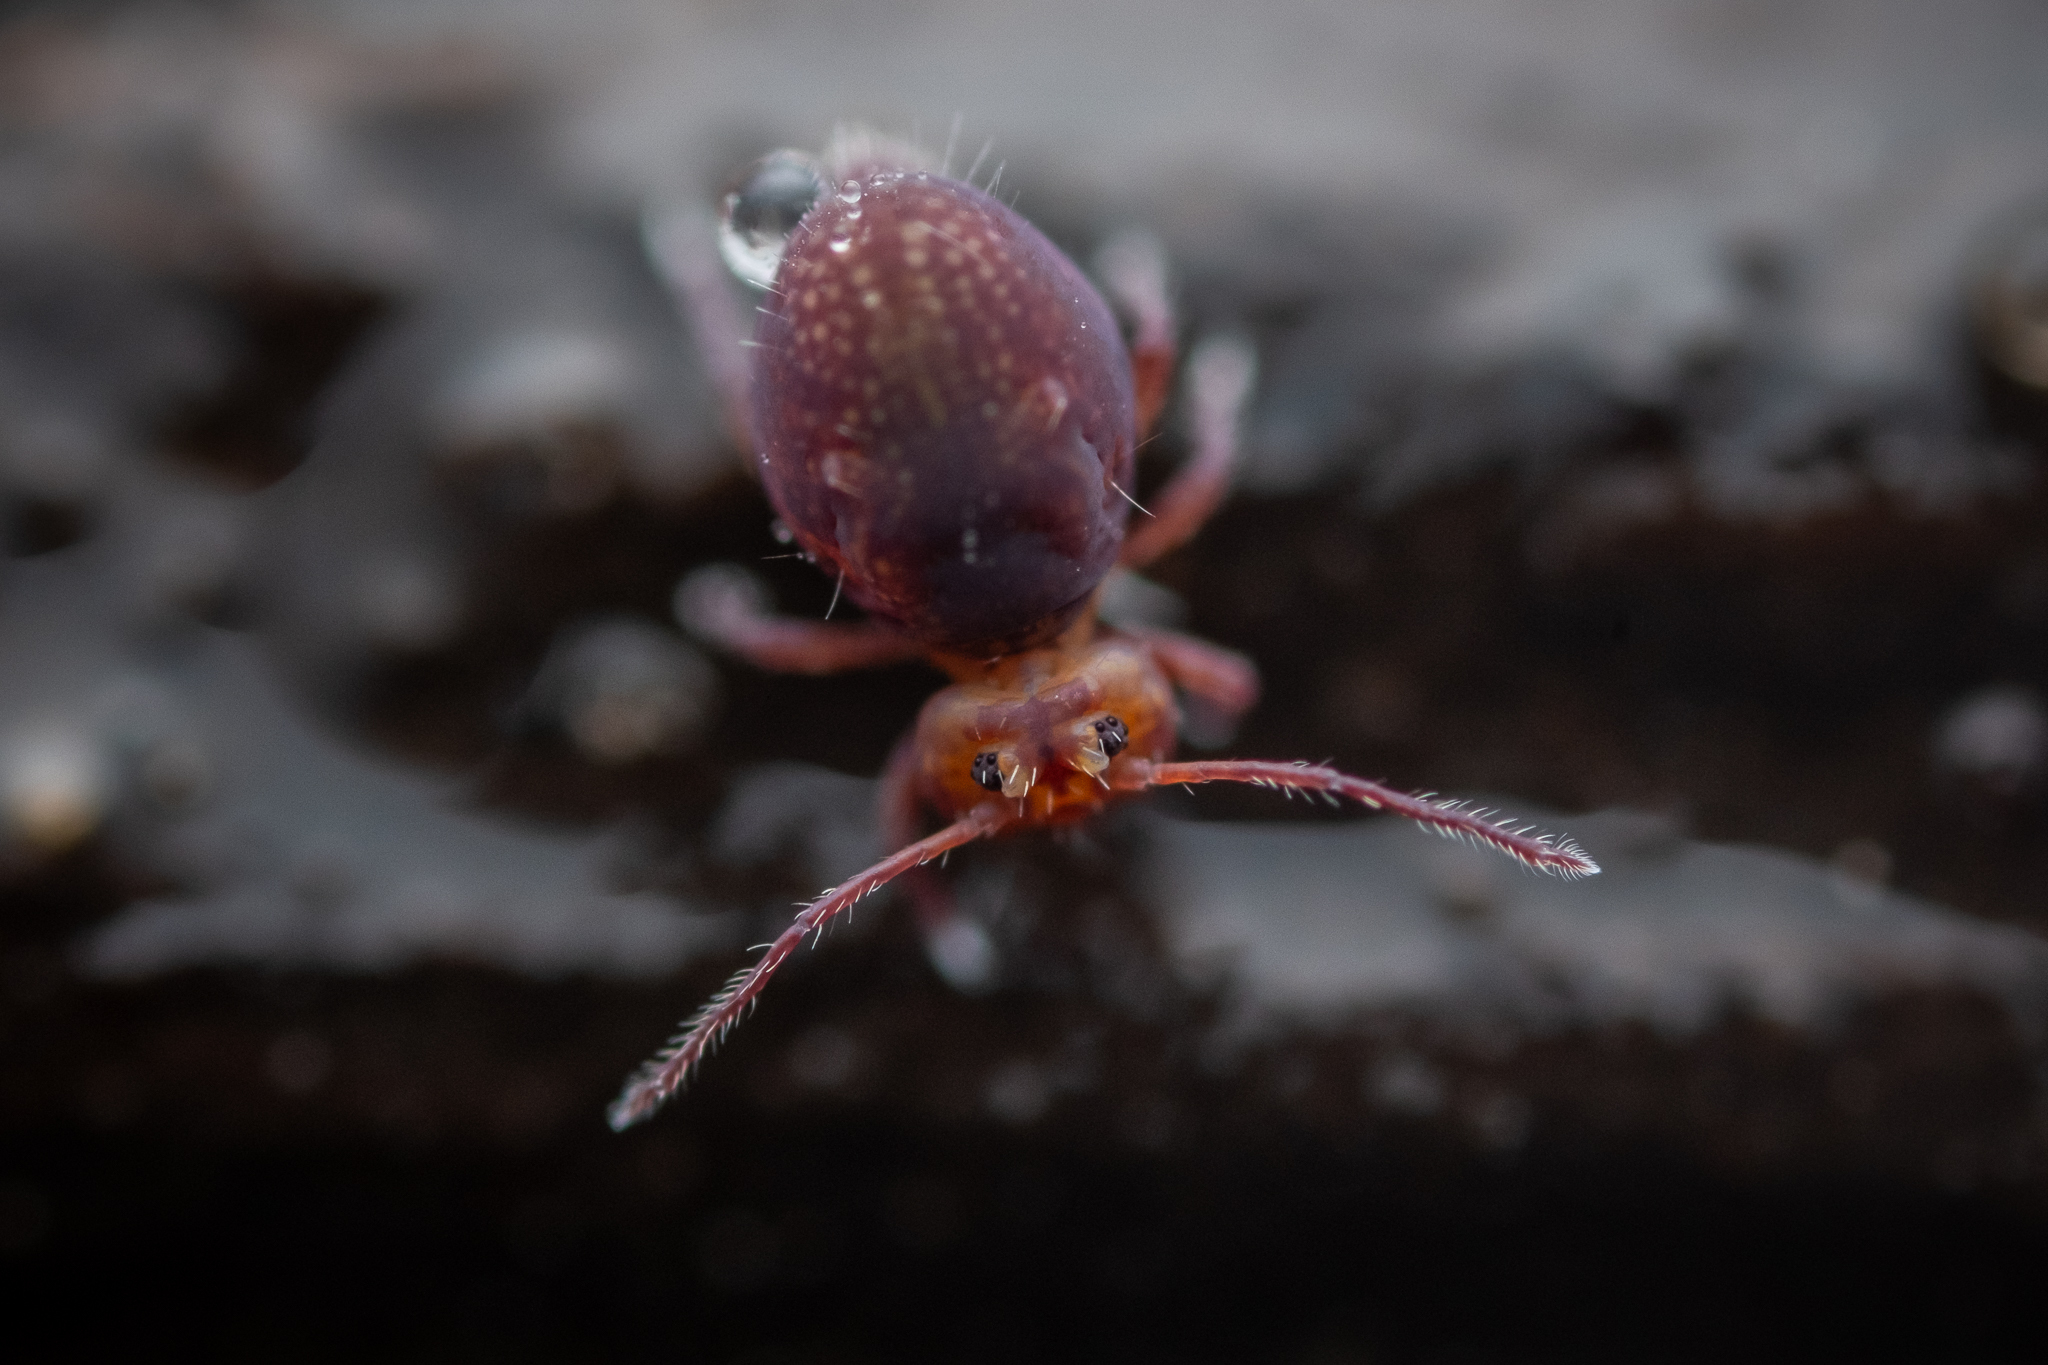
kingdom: Animalia
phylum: Arthropoda
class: Collembola
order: Symphypleona
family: Dicyrtomidae
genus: Dicyrtoma
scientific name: Dicyrtoma fusca
